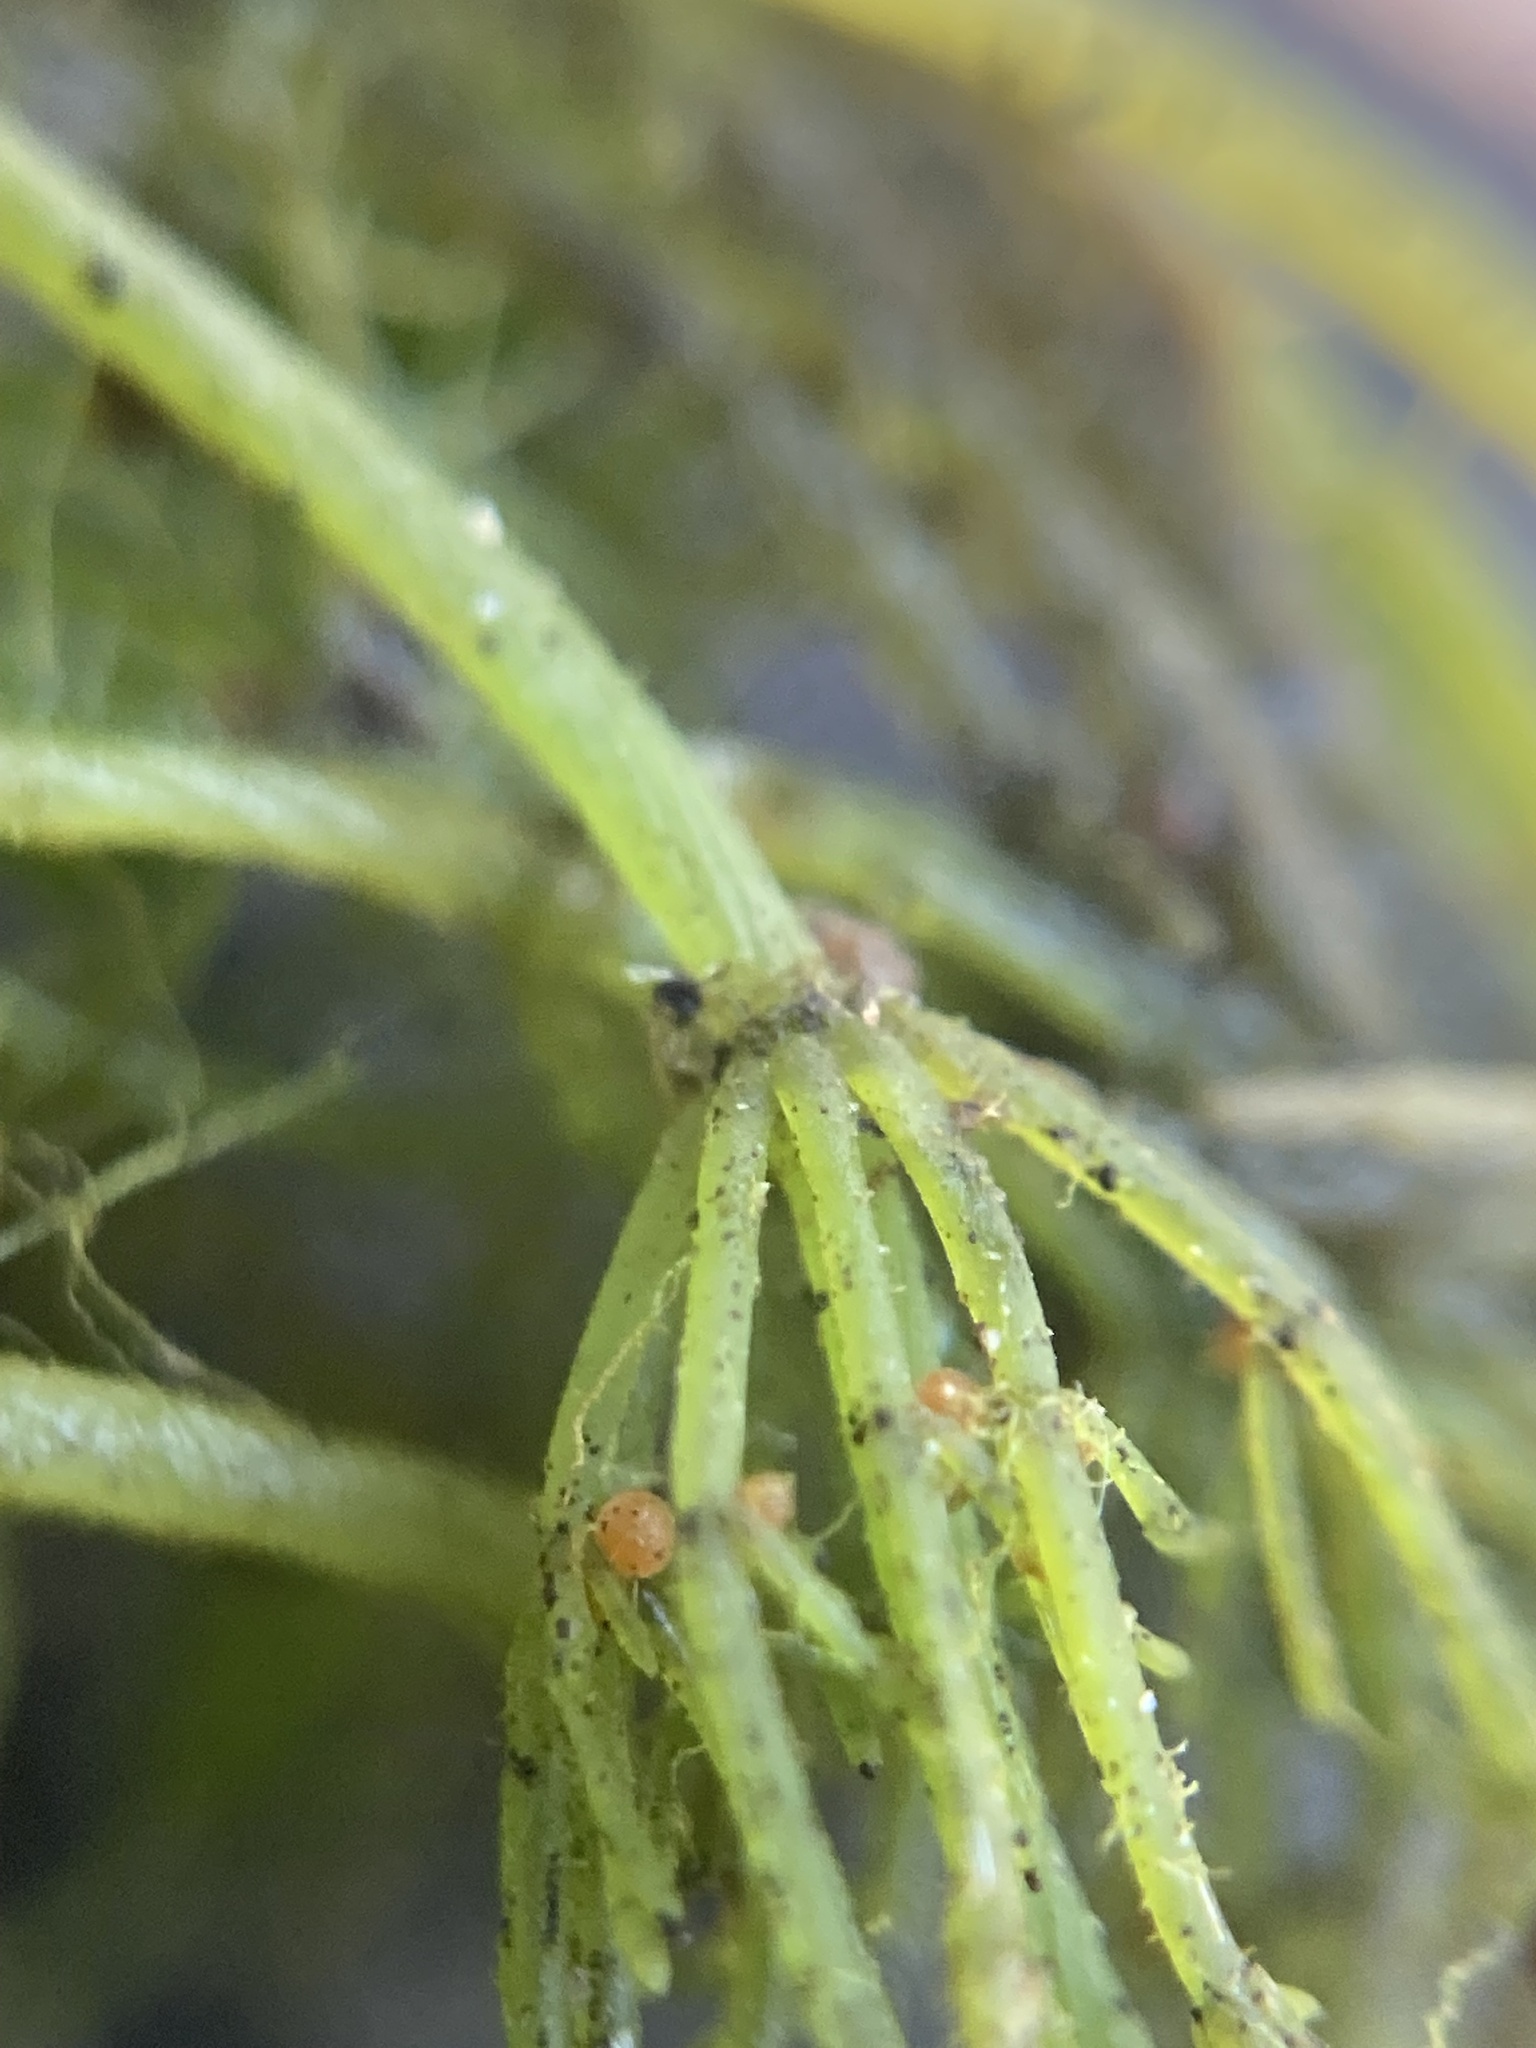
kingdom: Plantae
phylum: Charophyta
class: Charophyceae
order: Charales
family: Characeae
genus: Chara
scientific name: Chara vulgaris
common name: Common stonewort
